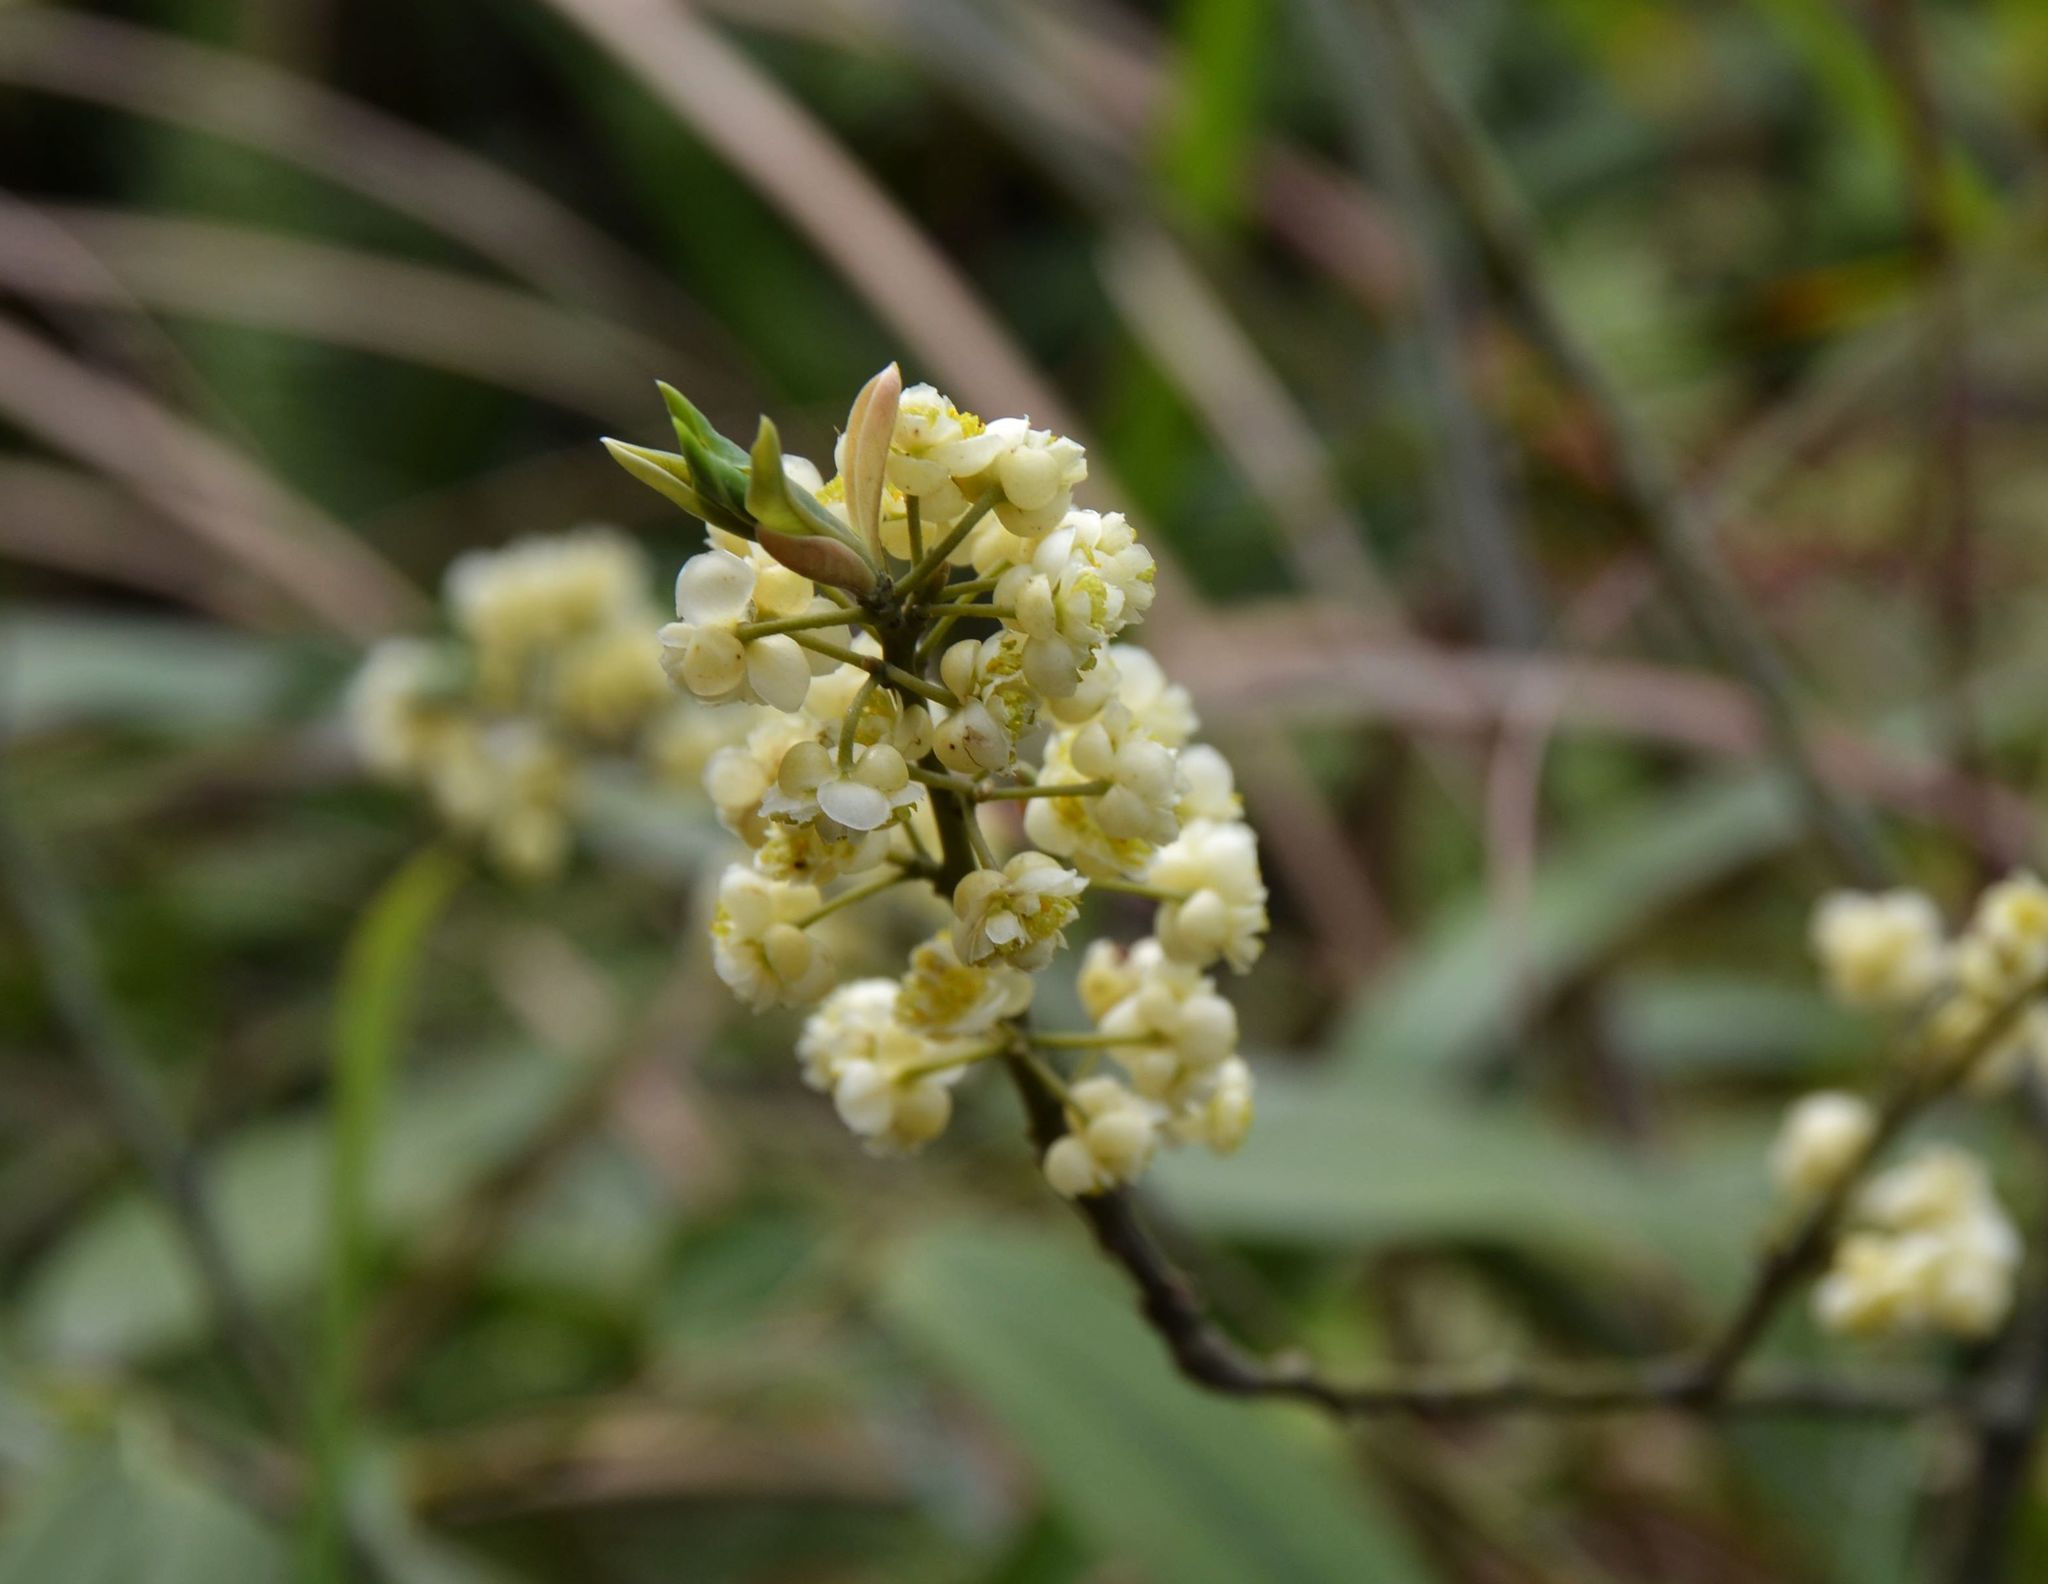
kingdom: Plantae
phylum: Tracheophyta
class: Magnoliopsida
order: Laurales
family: Lauraceae
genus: Litsea
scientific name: Litsea cubeba
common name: Mountain-pepper
